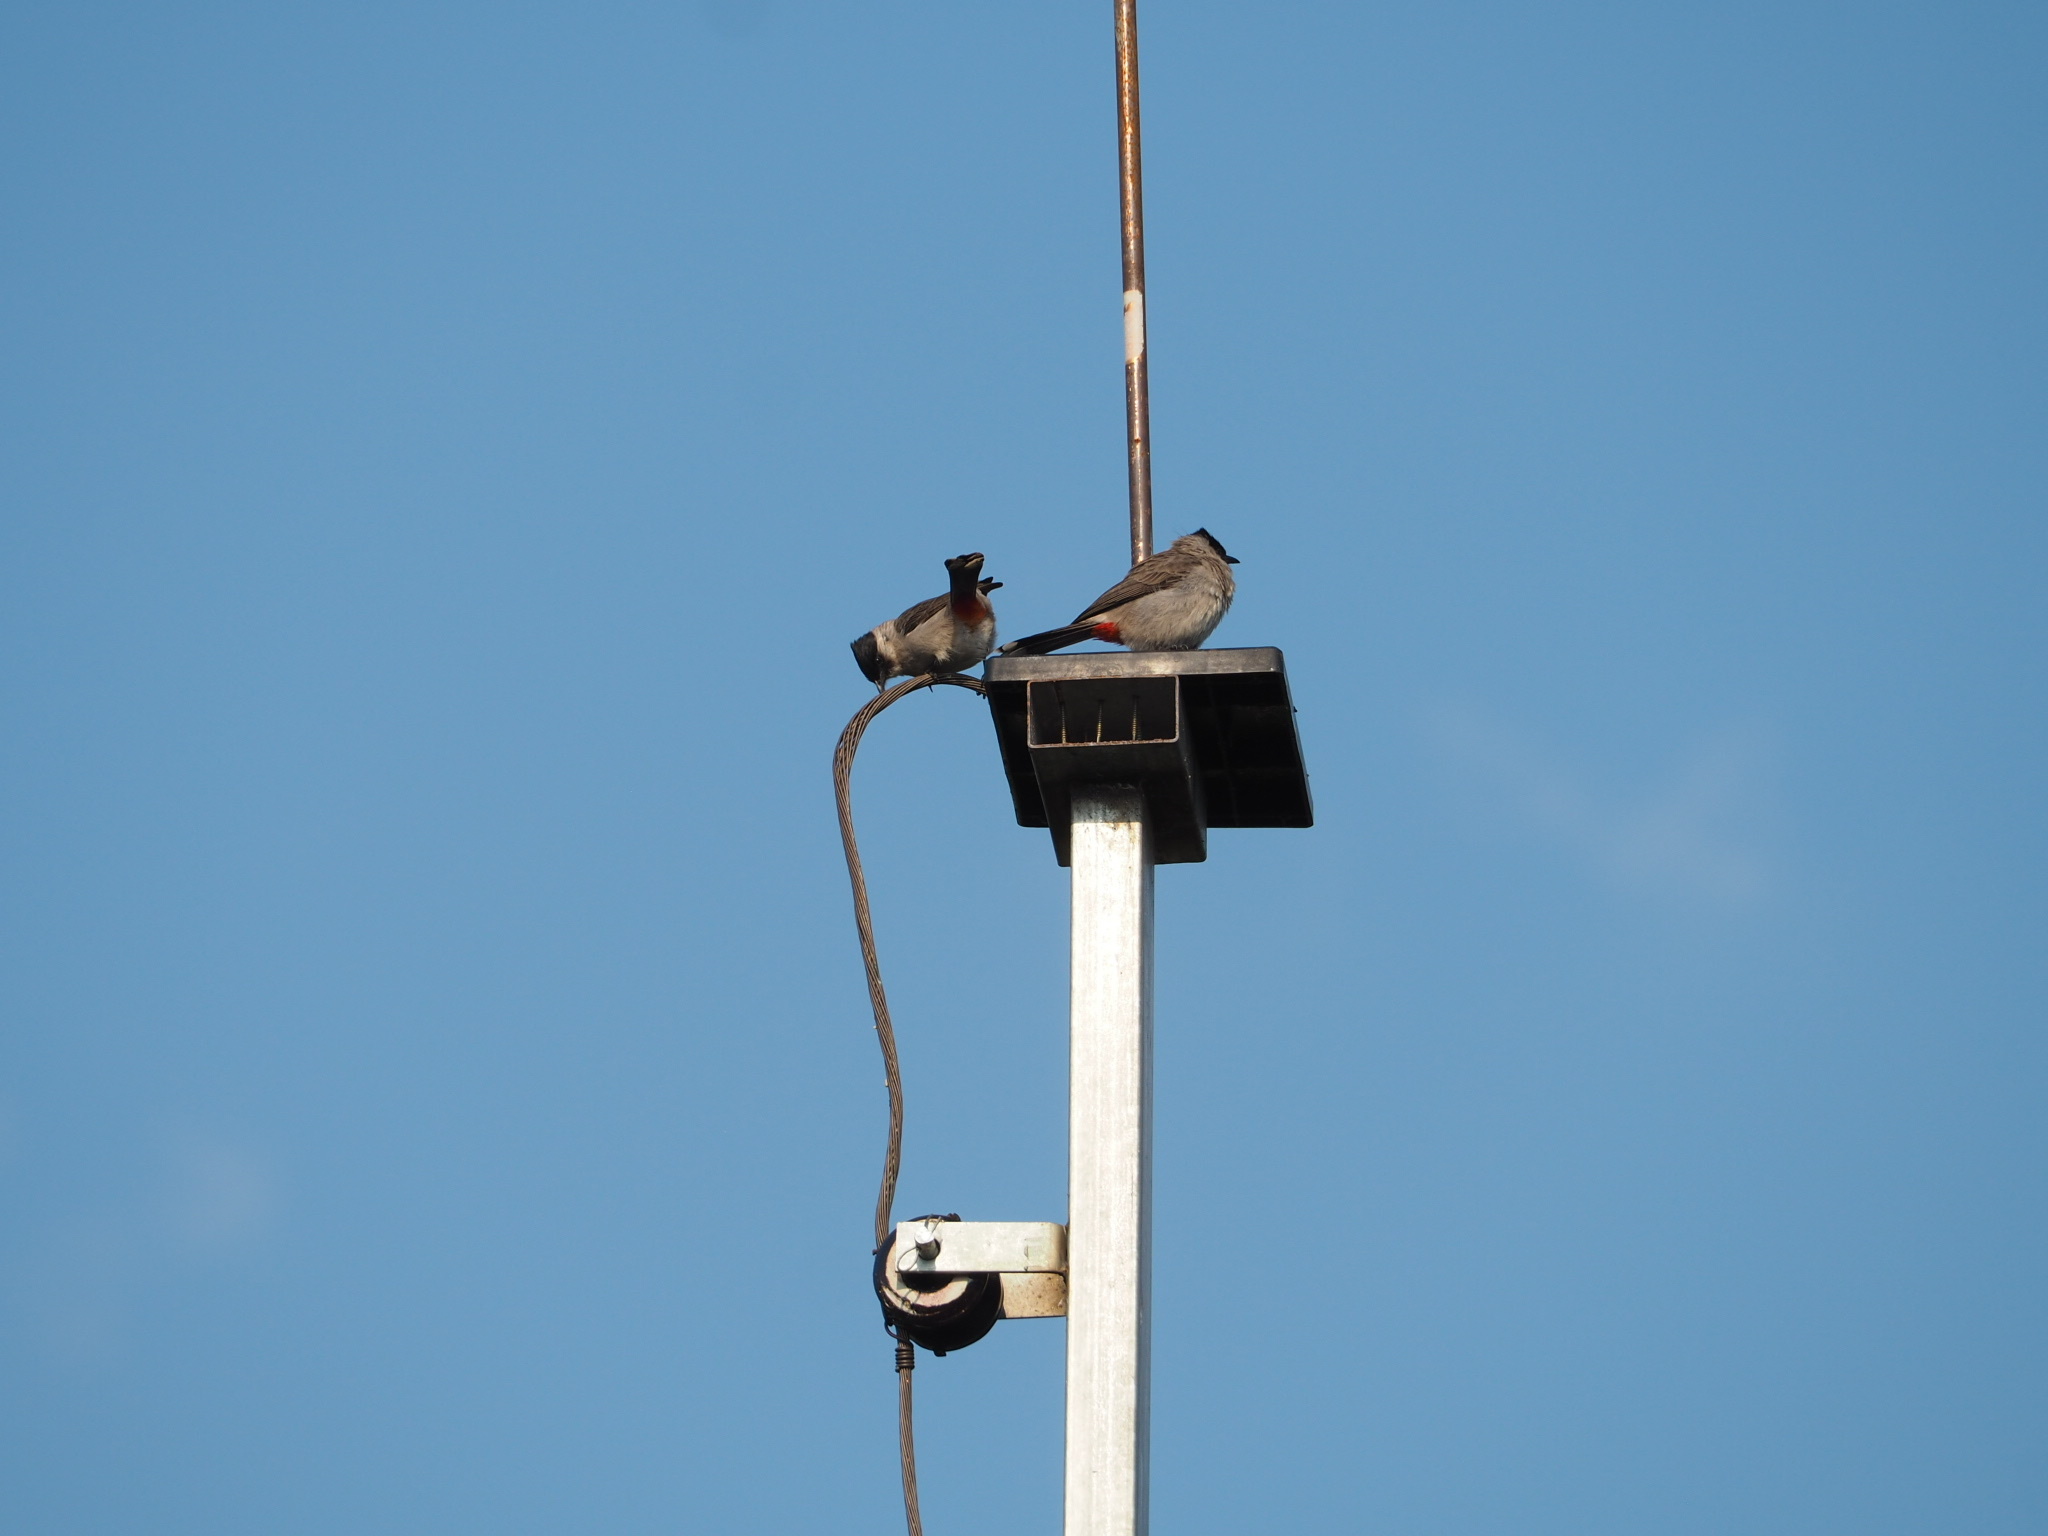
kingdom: Animalia
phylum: Chordata
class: Aves
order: Passeriformes
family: Pycnonotidae
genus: Pycnonotus
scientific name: Pycnonotus aurigaster
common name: Sooty-headed bulbul
